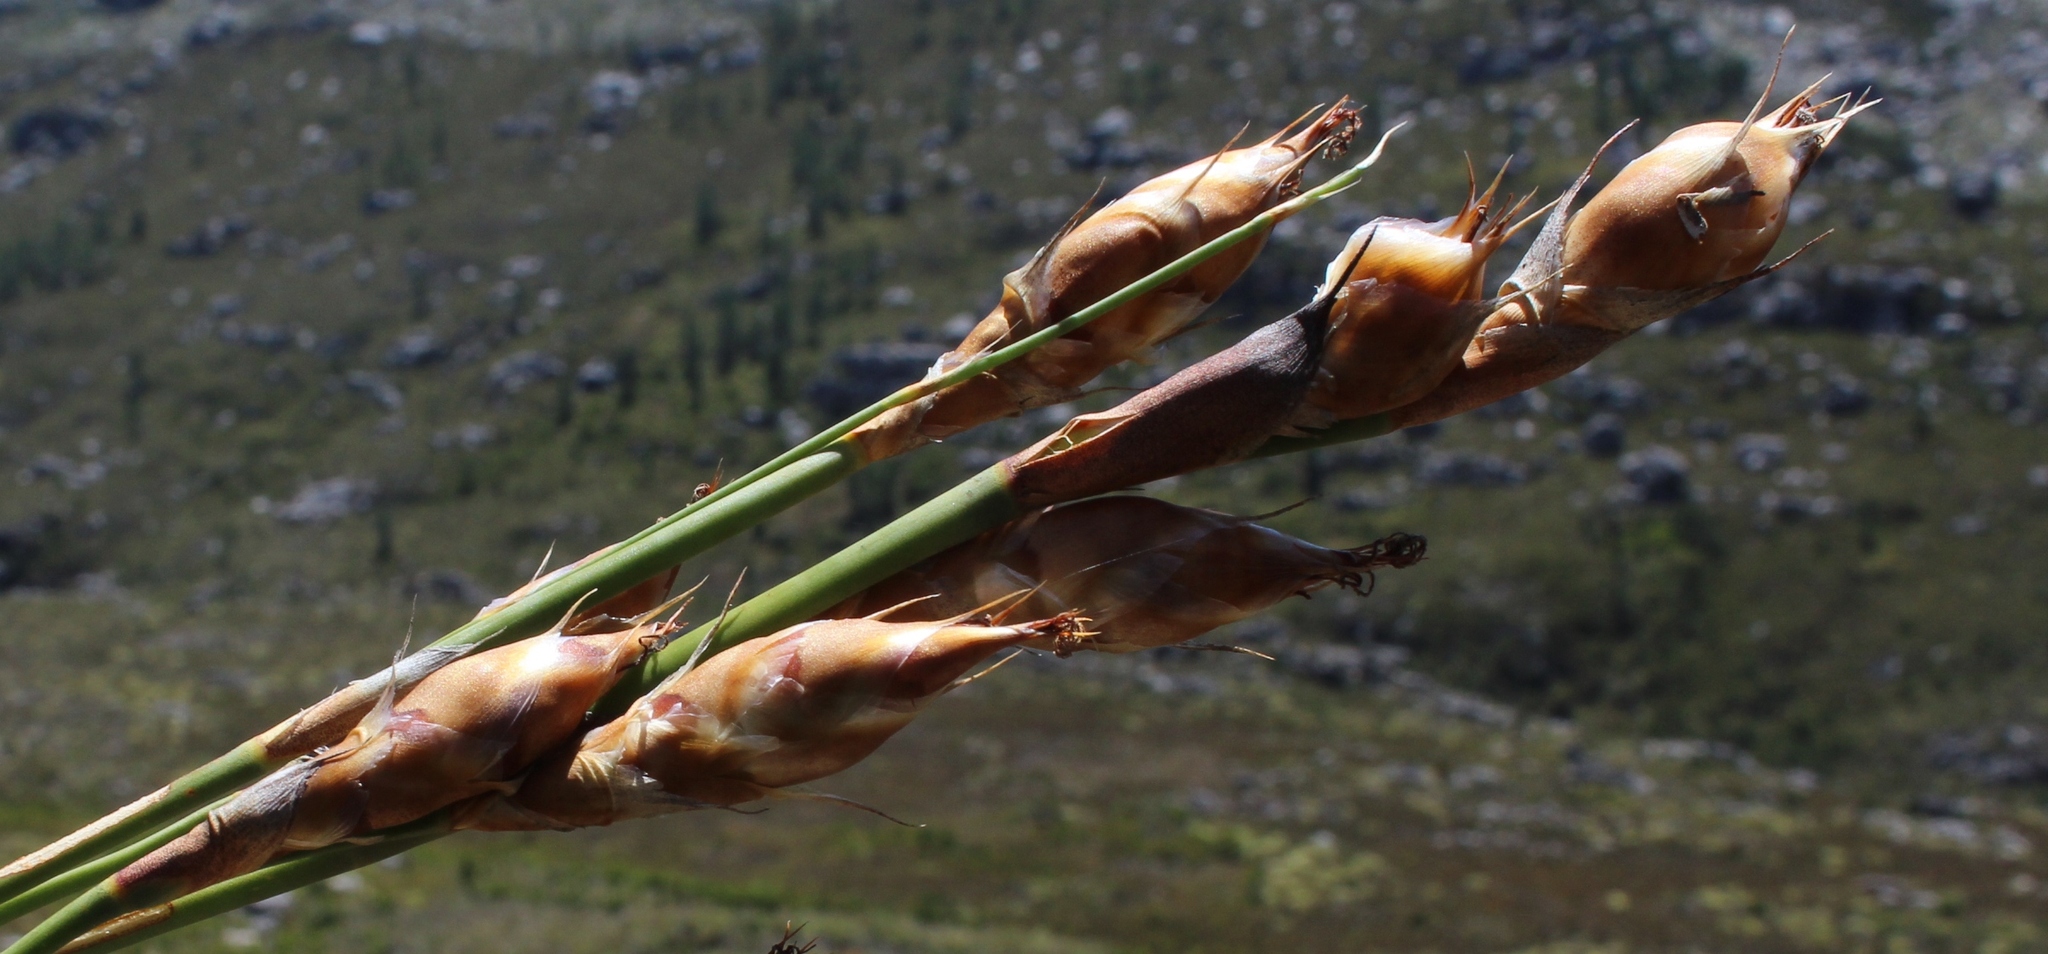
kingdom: Plantae
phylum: Tracheophyta
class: Liliopsida
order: Poales
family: Restionaceae
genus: Cannomois
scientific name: Cannomois grandis
